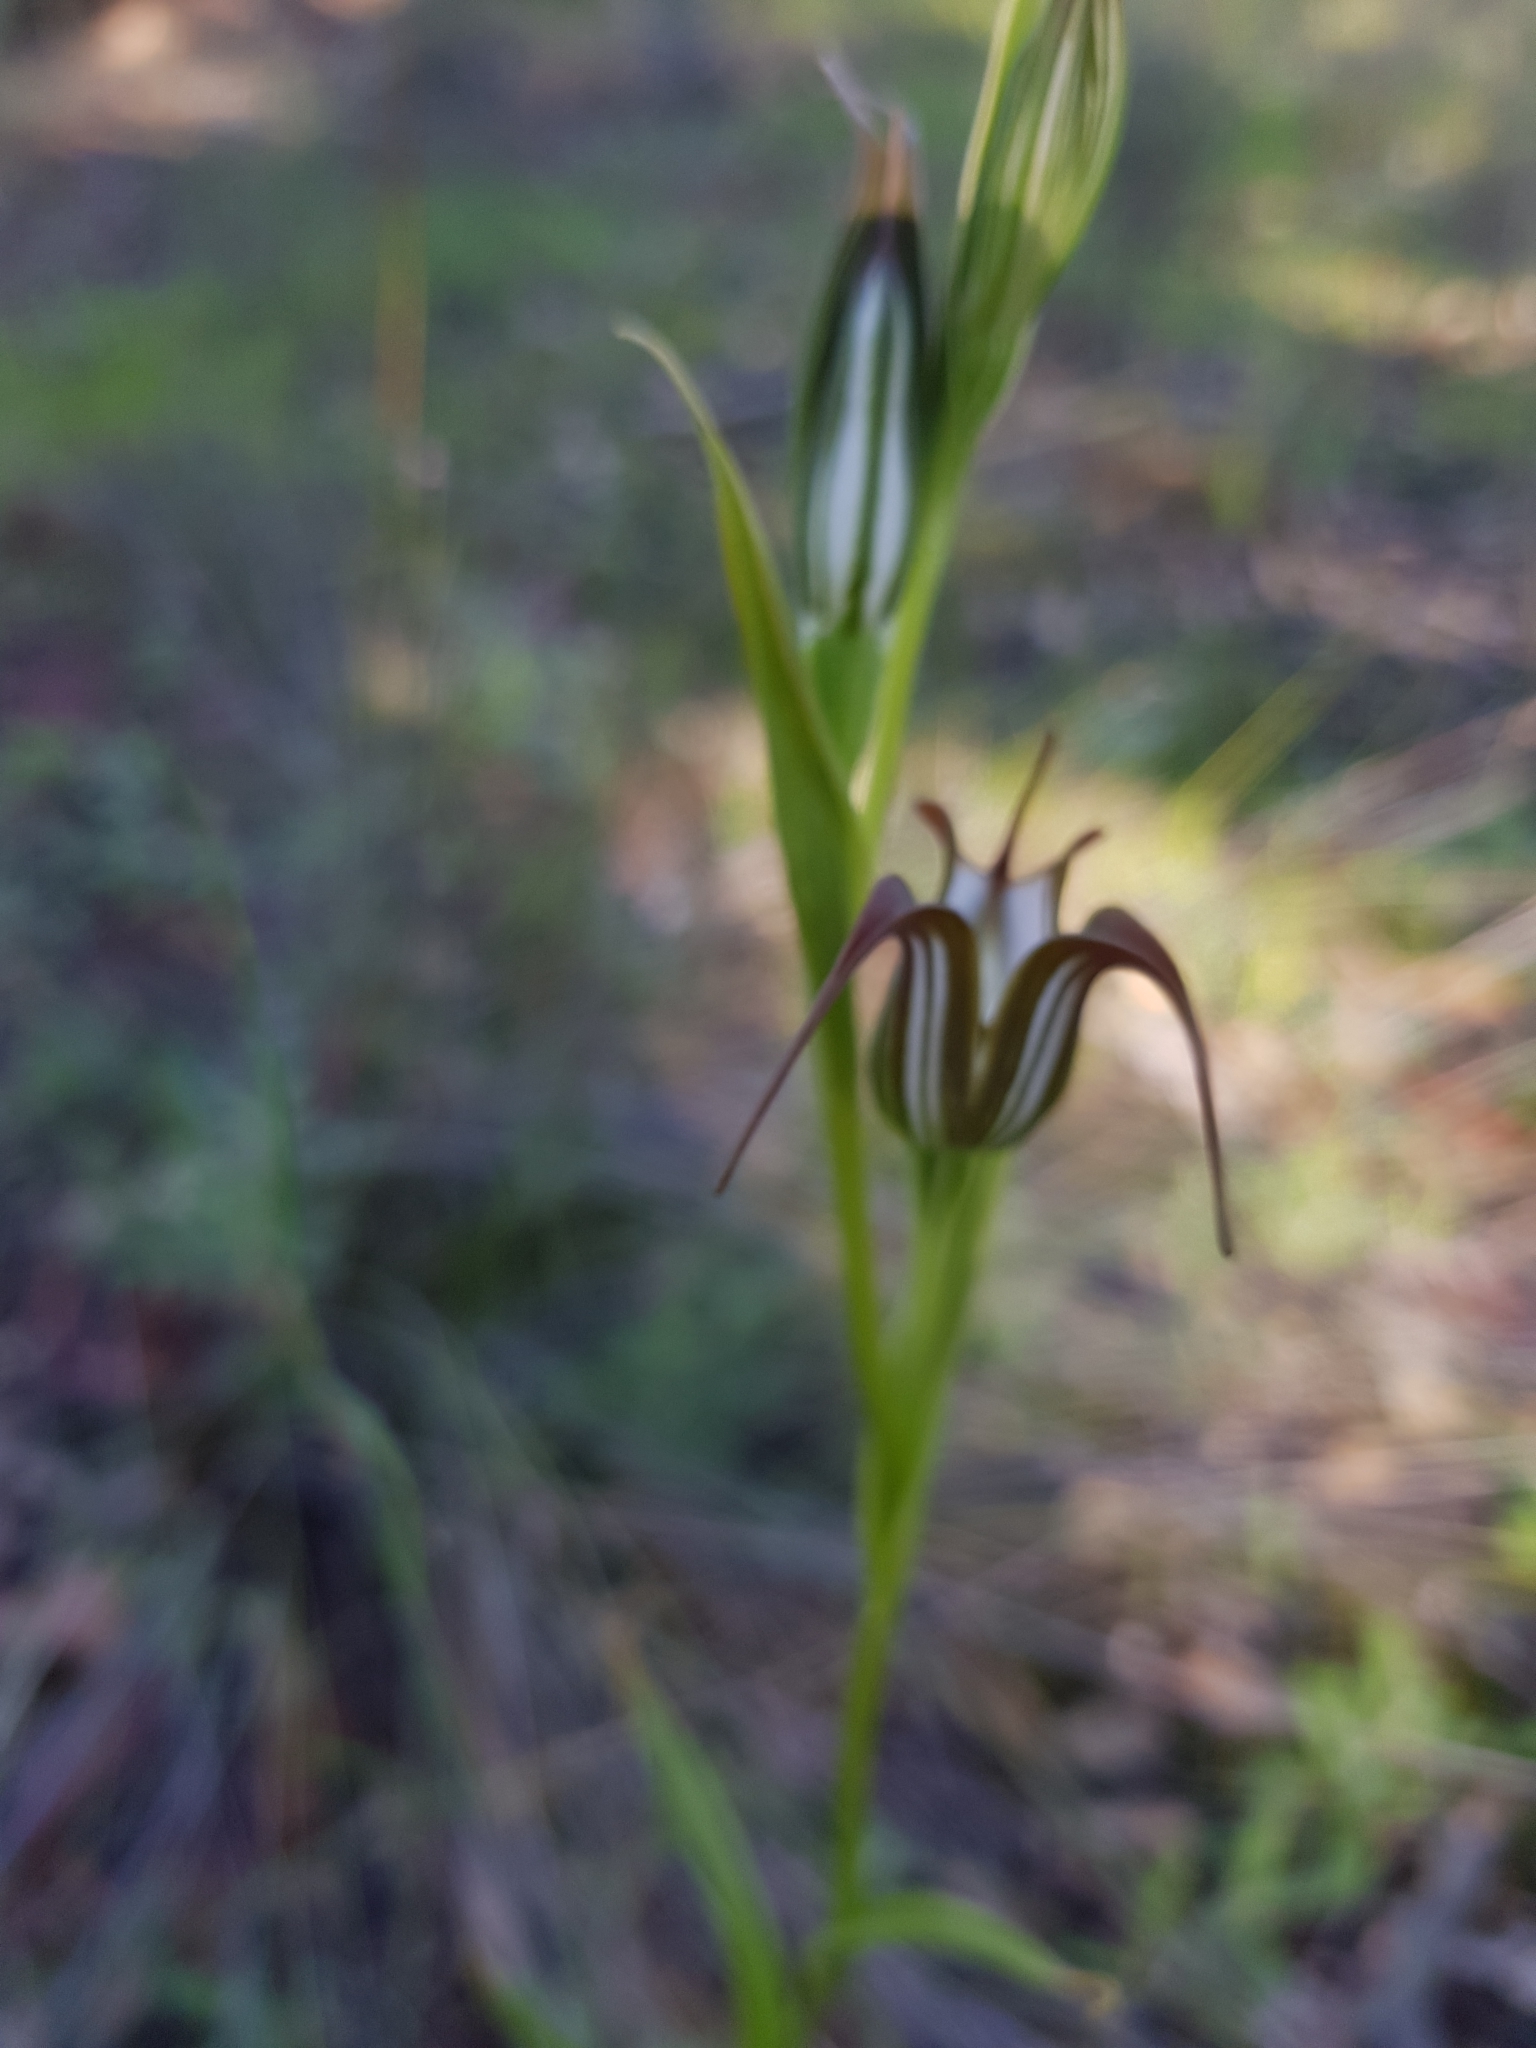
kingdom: Plantae
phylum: Tracheophyta
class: Liliopsida
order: Asparagales
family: Orchidaceae
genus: Pterostylis
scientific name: Pterostylis recurva
